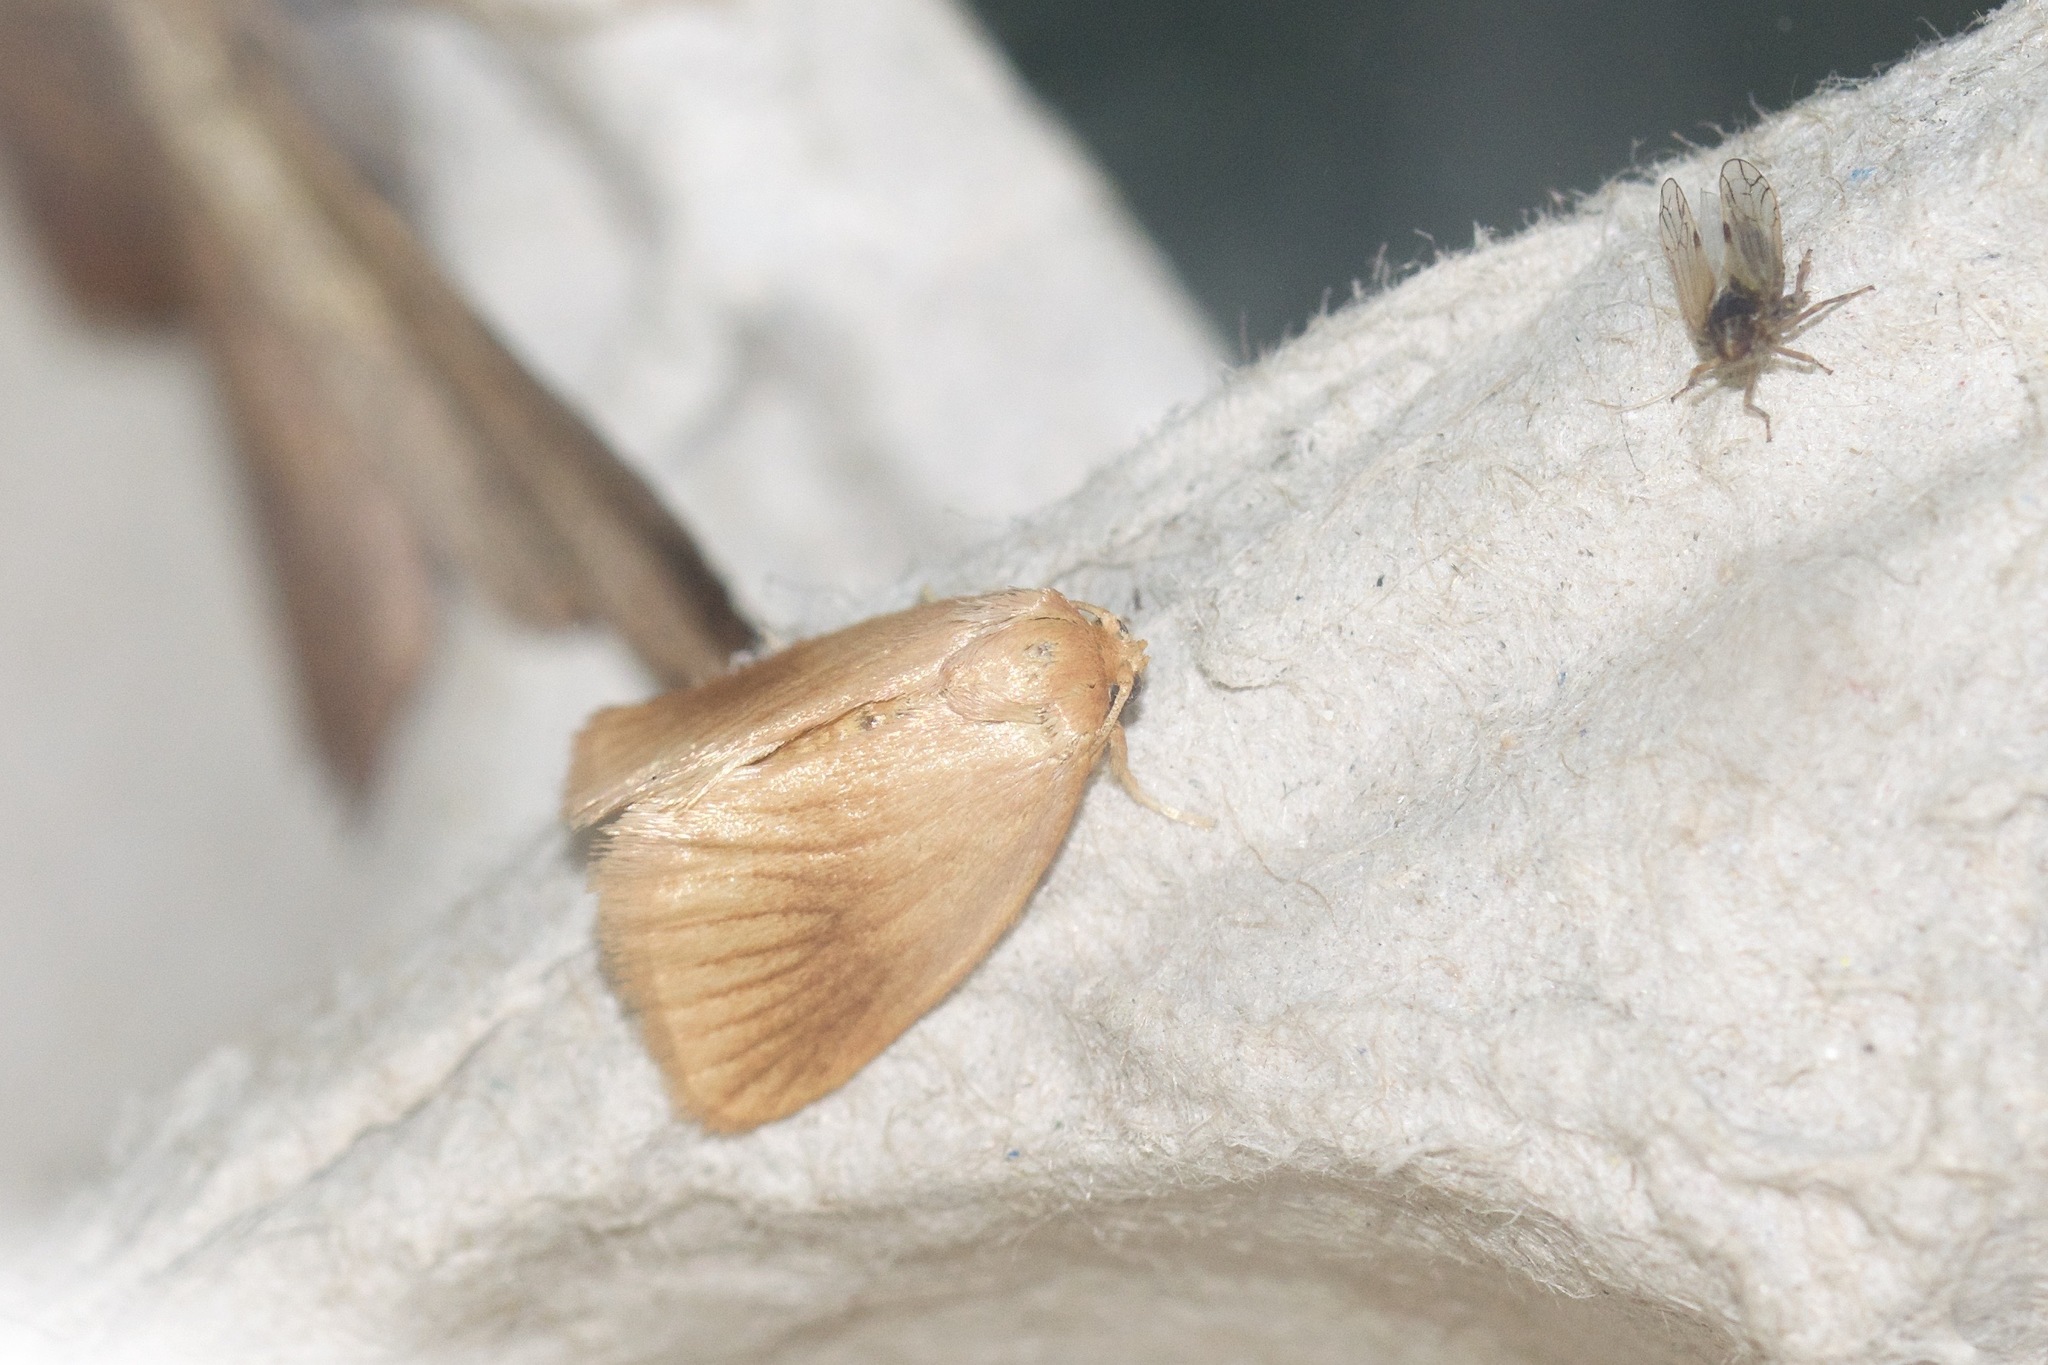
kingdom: Animalia
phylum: Arthropoda
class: Insecta
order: Lepidoptera
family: Limacodidae
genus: Tortricidia
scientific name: Tortricidia testacea
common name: Early button slug moth
